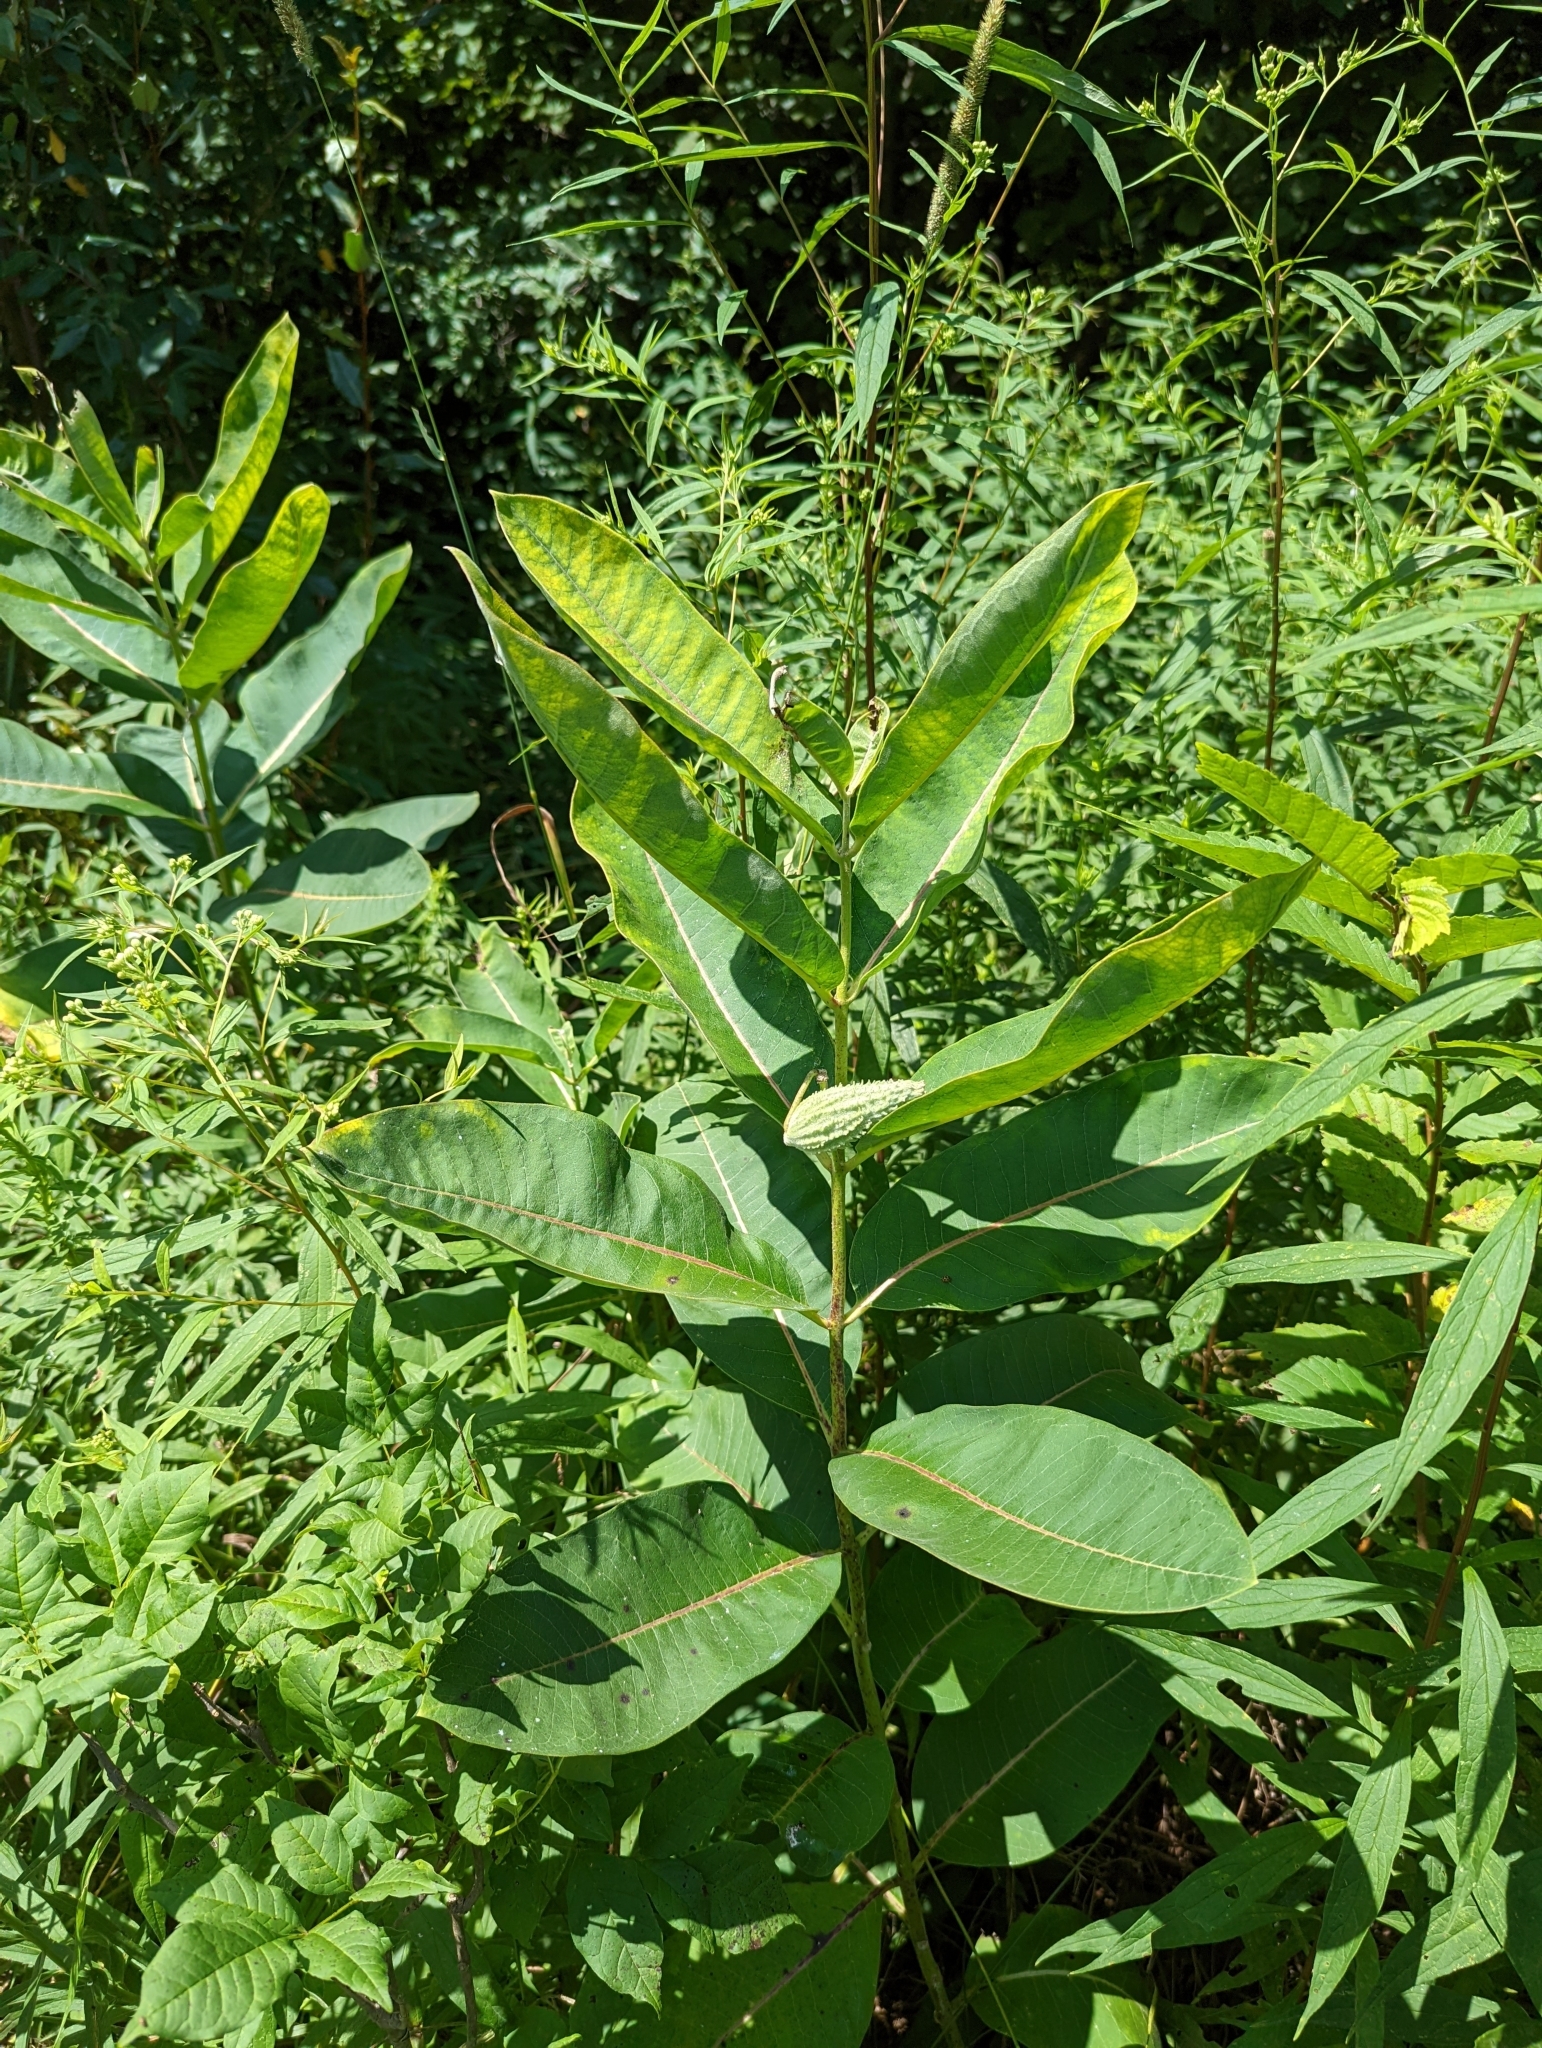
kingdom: Plantae
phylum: Tracheophyta
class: Magnoliopsida
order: Gentianales
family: Apocynaceae
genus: Asclepias
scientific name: Asclepias syriaca
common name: Common milkweed
